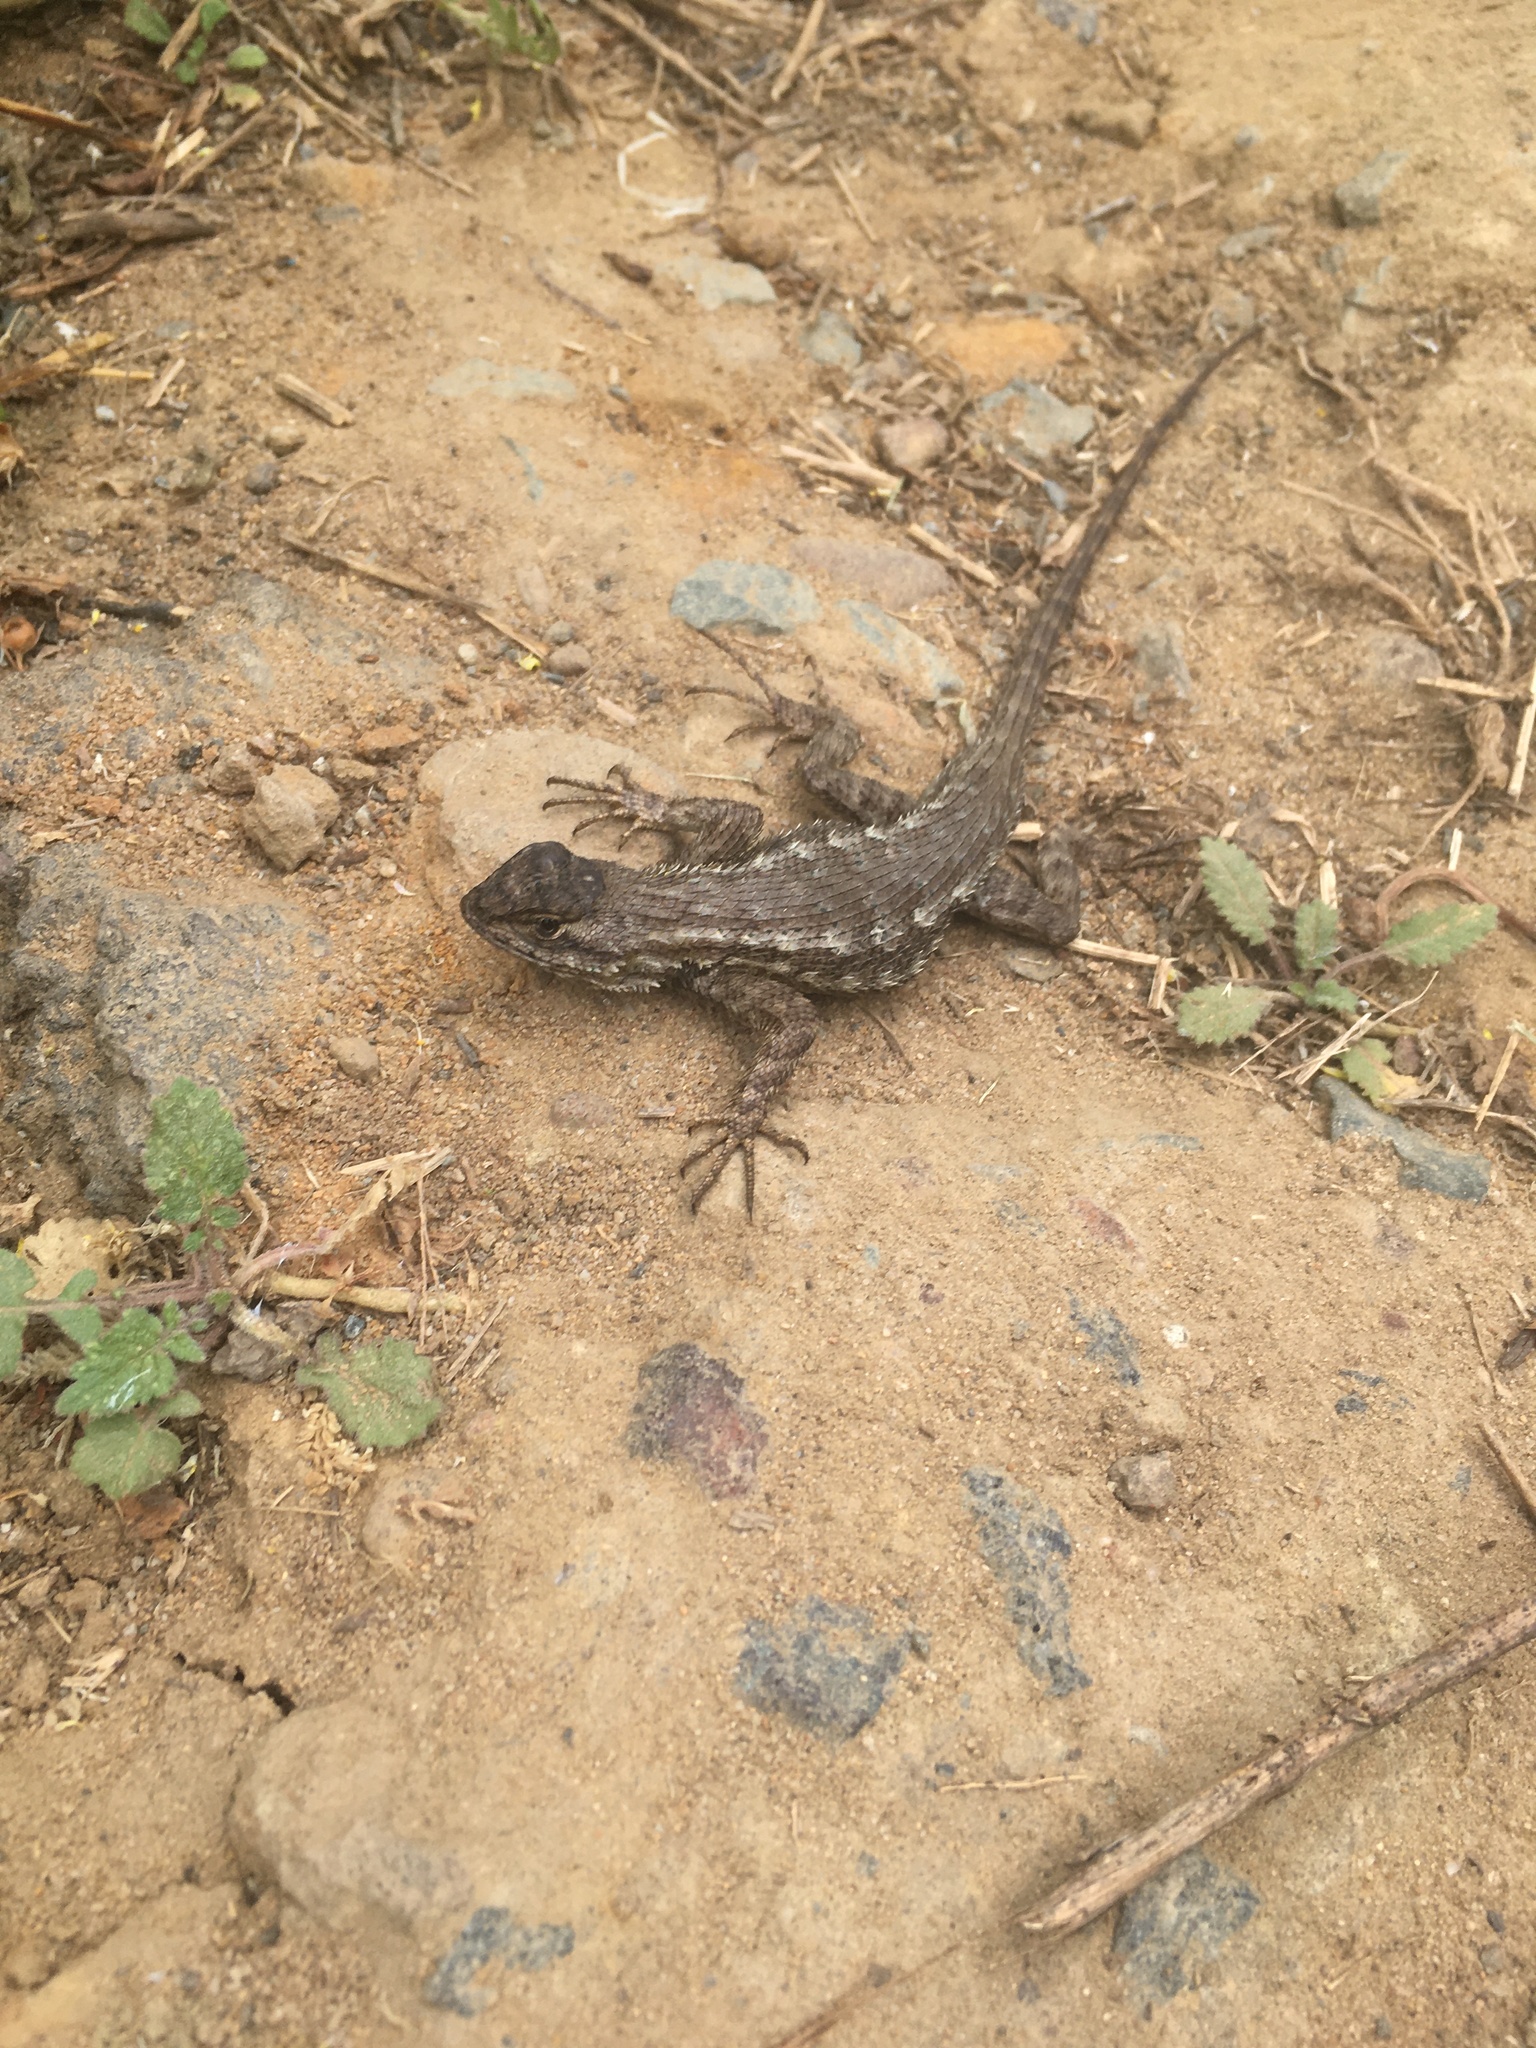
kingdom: Animalia
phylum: Chordata
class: Squamata
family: Phrynosomatidae
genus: Sceloporus
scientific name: Sceloporus occidentalis
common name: Western fence lizard
